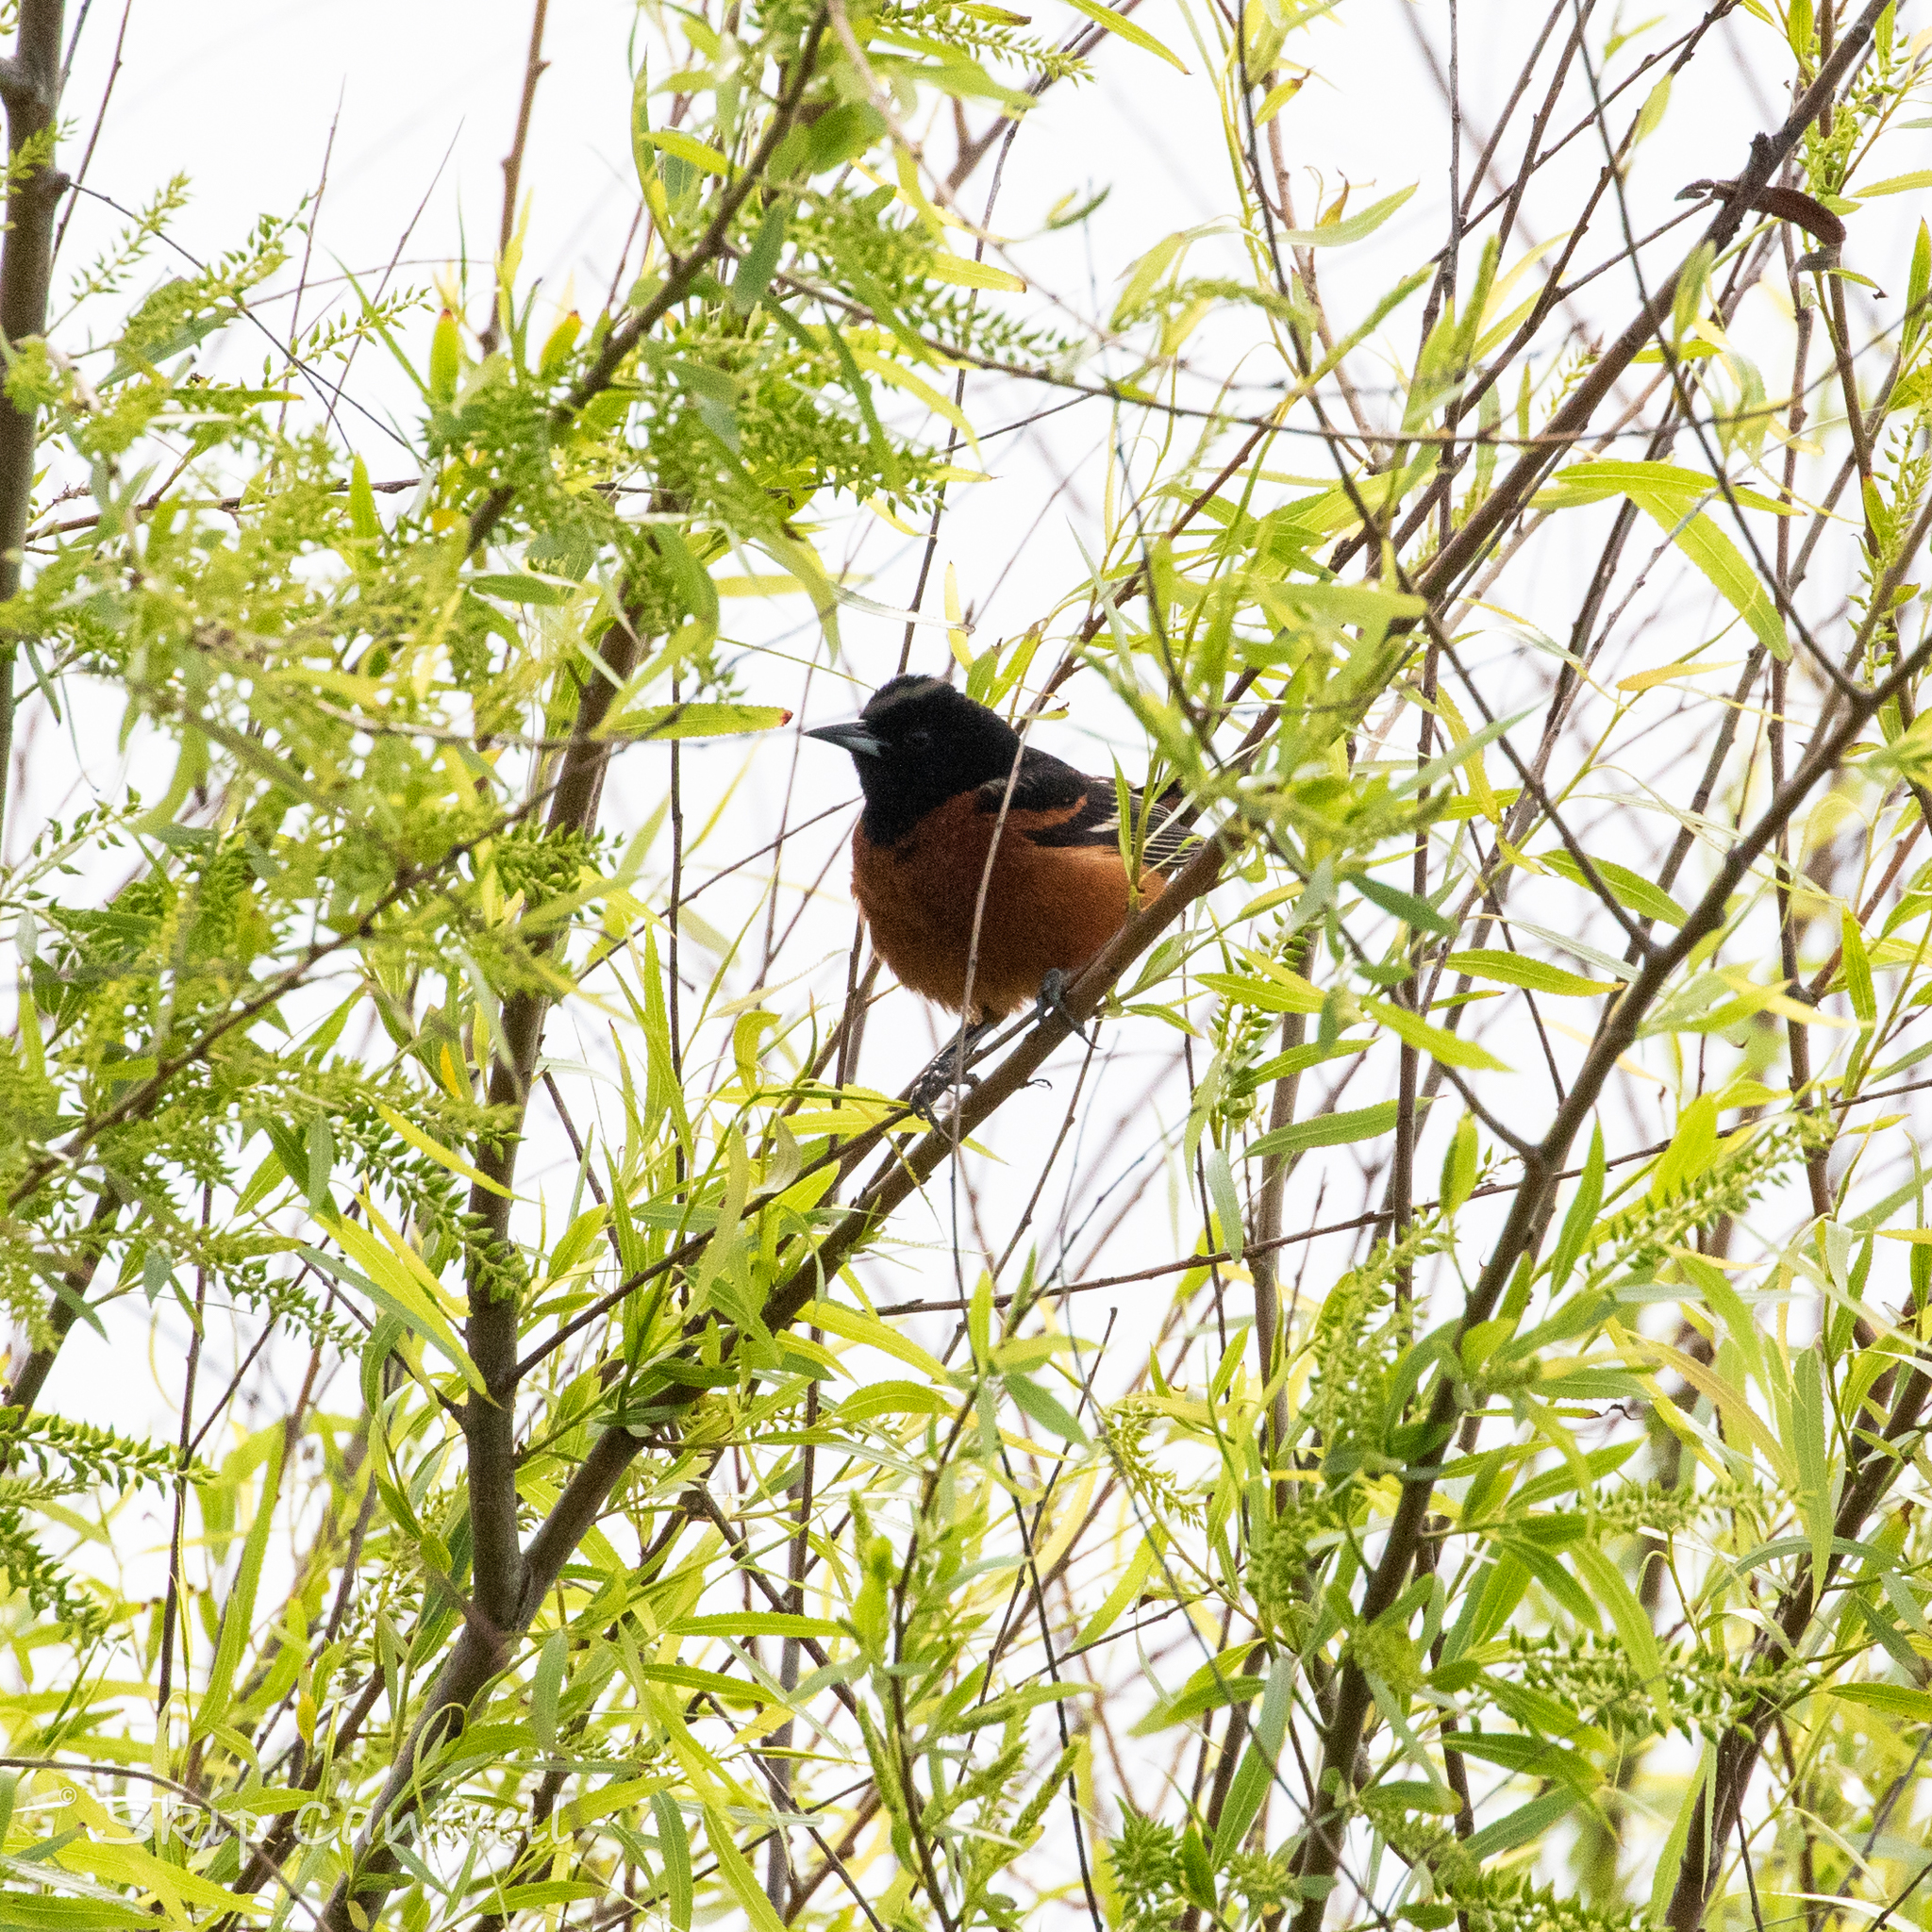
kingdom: Animalia
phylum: Chordata
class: Aves
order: Passeriformes
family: Icteridae
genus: Icterus
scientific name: Icterus spurius
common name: Orchard oriole
